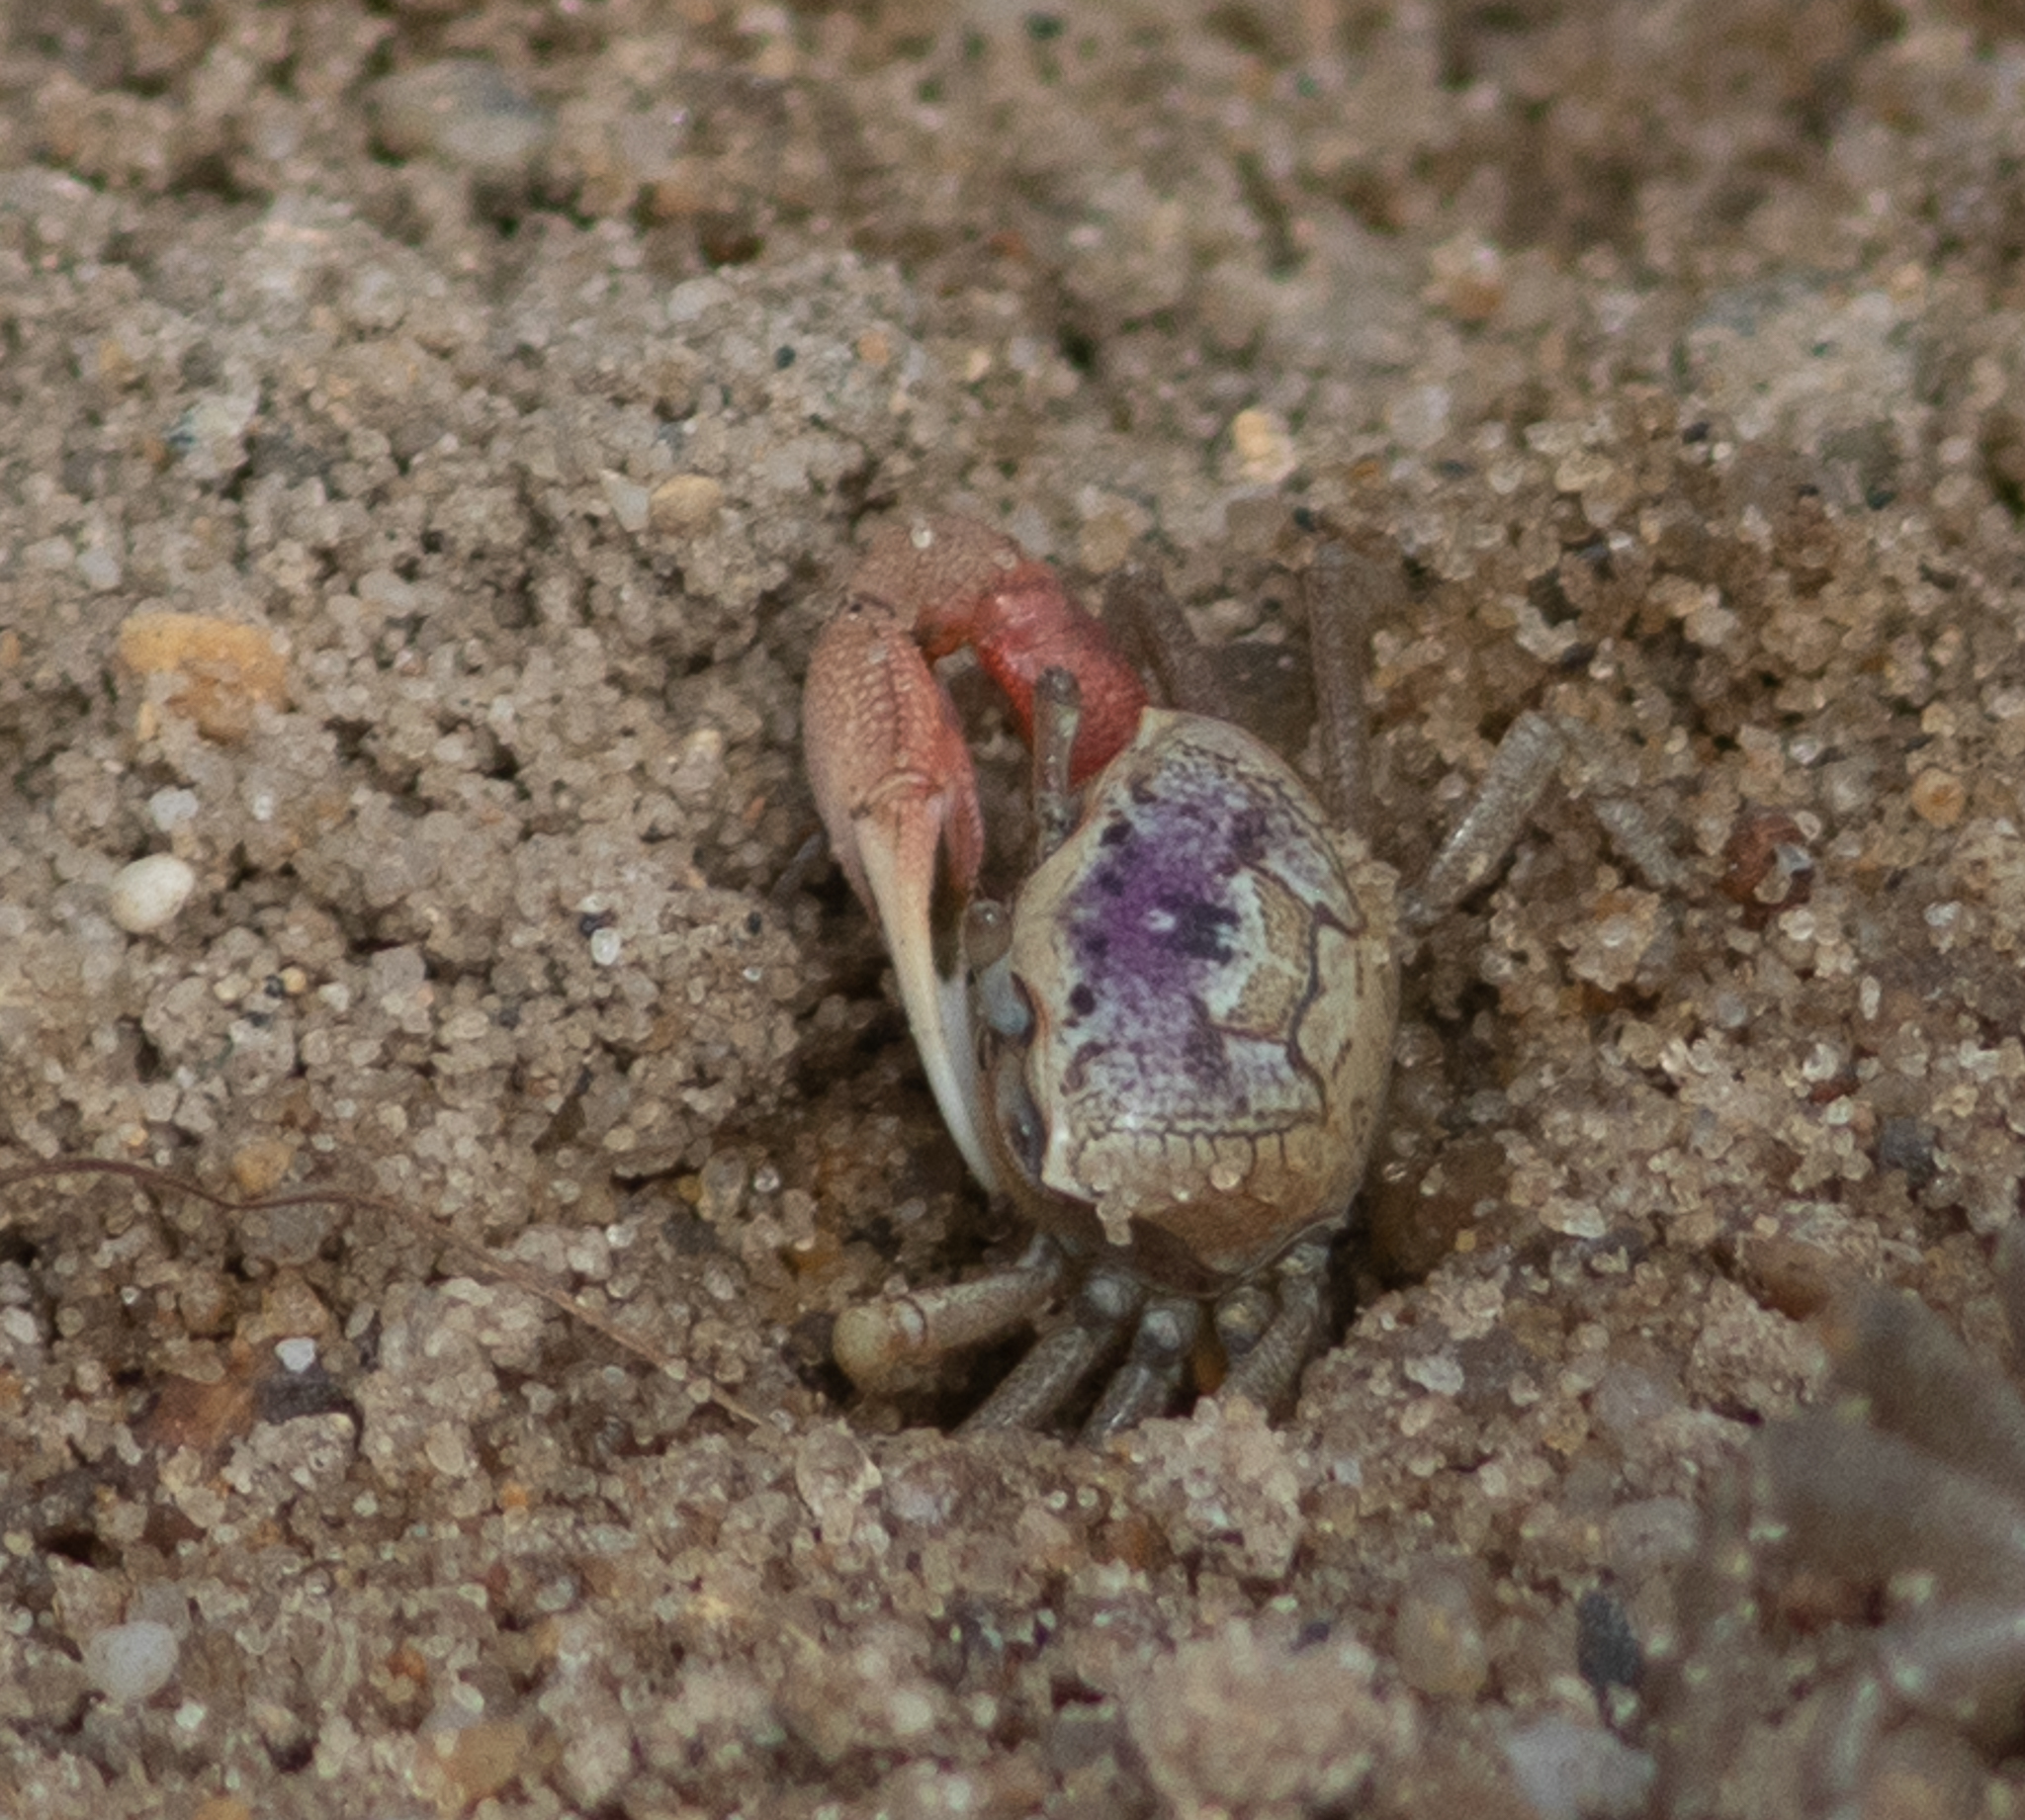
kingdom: Animalia
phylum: Arthropoda
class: Malacostraca
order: Decapoda
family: Ocypodidae
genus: Leptuca
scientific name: Leptuca pugilator
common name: Atlantic sand fiddler crab
